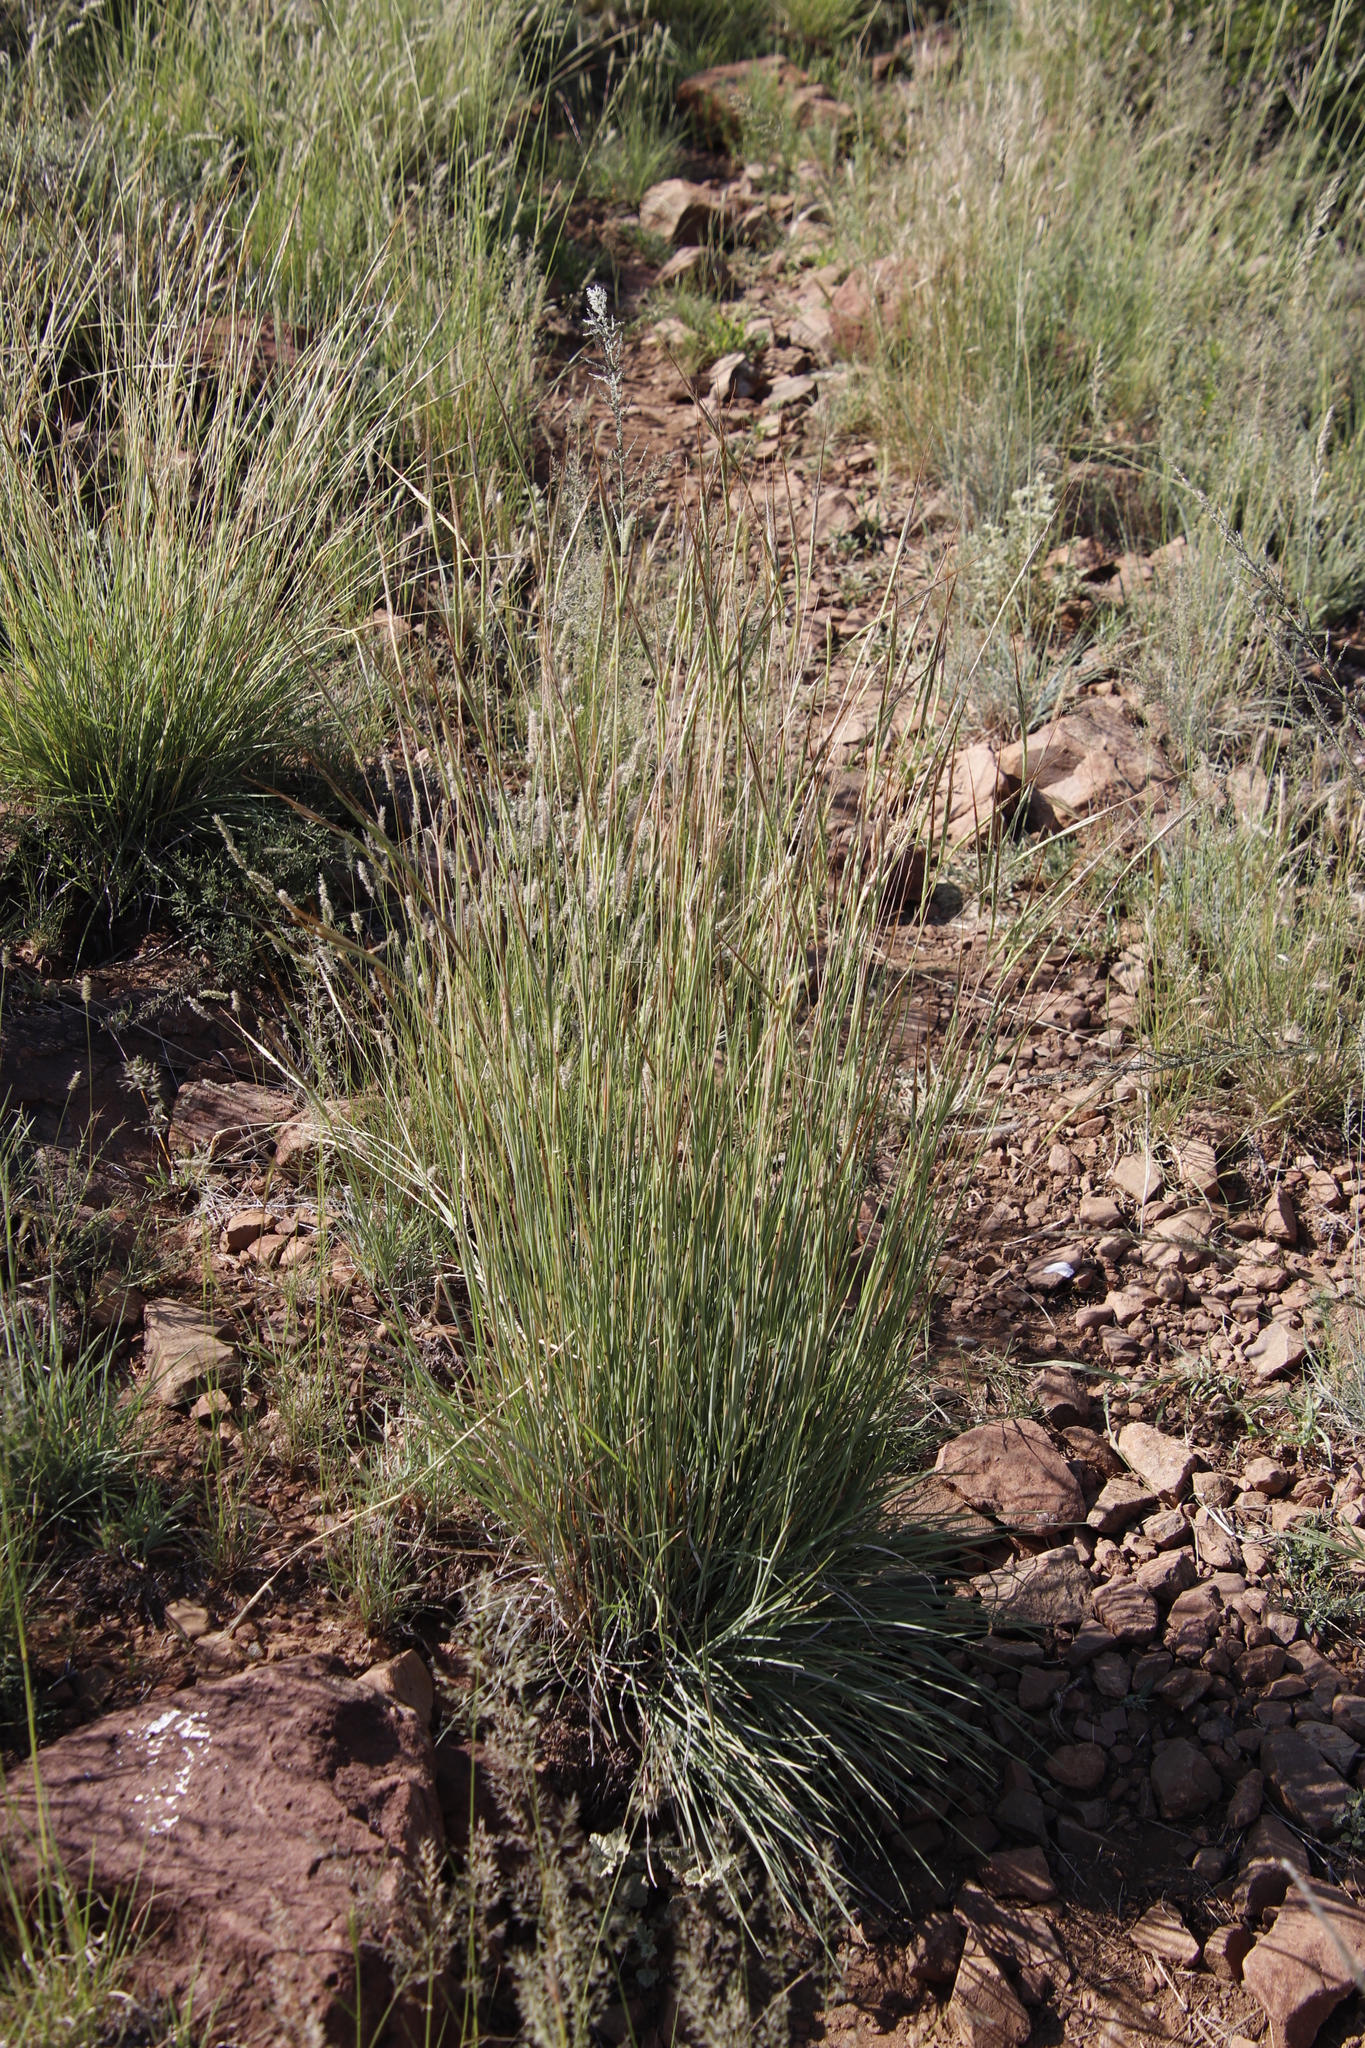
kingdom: Plantae
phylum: Tracheophyta
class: Liliopsida
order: Poales
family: Poaceae
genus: Heteropogon
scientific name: Heteropogon contortus
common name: Tanglehead
